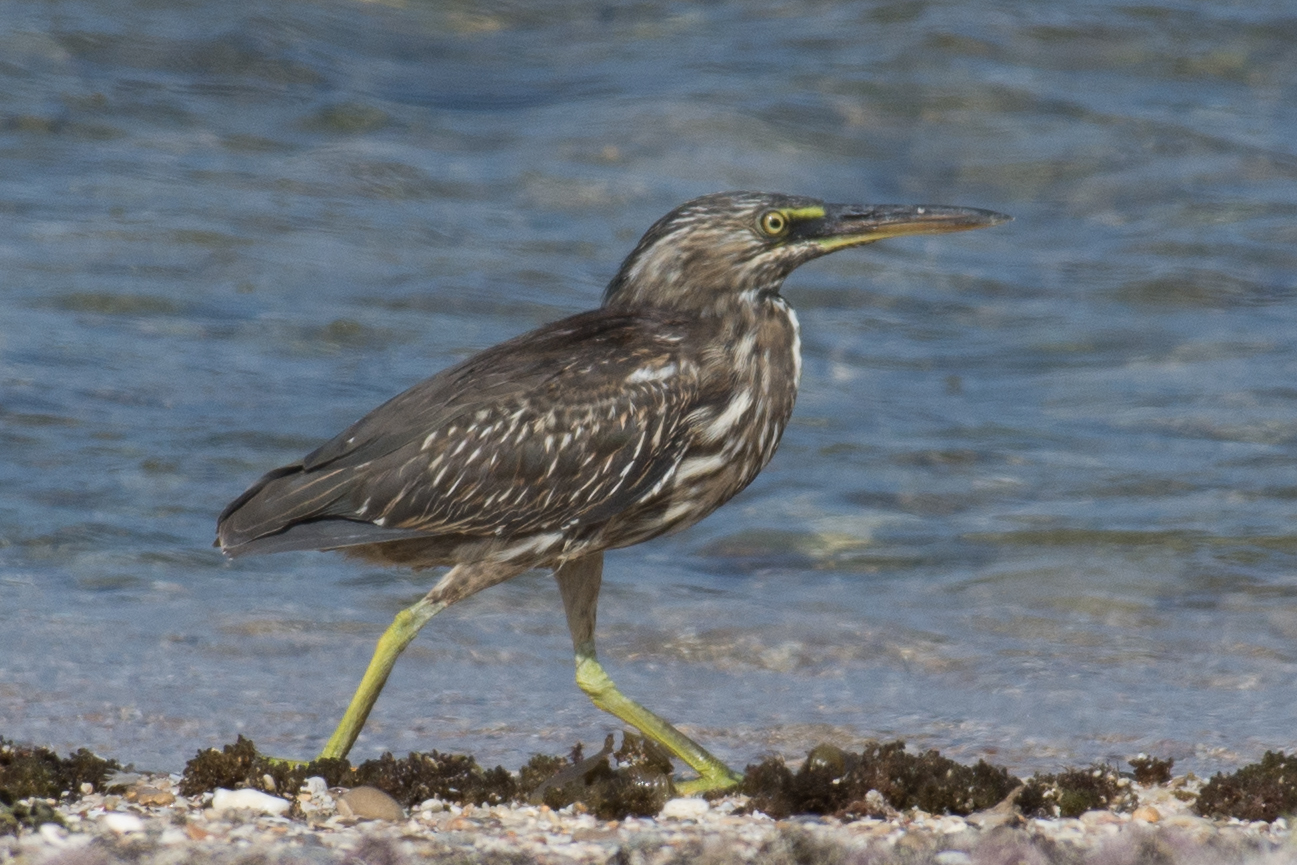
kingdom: Animalia
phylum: Chordata
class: Aves
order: Pelecaniformes
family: Ardeidae
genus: Butorides
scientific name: Butorides striata
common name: Striated heron
